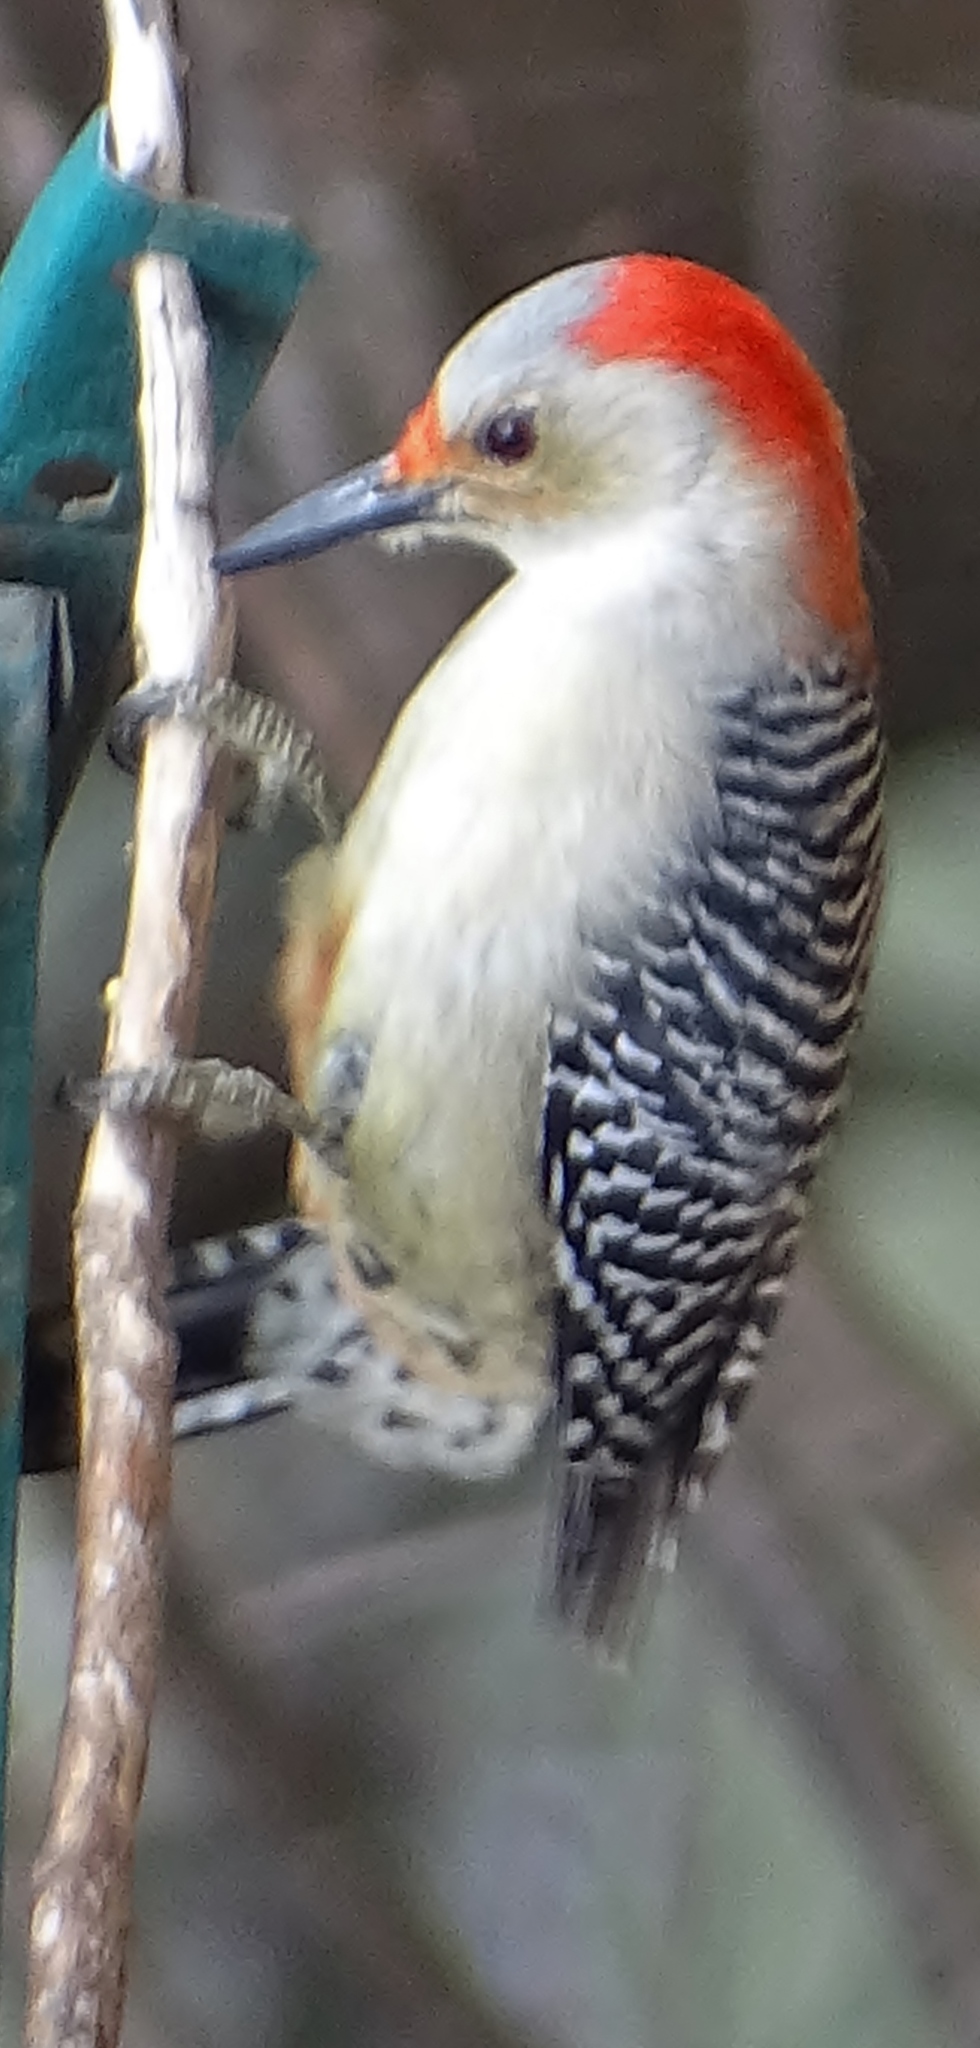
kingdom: Animalia
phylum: Chordata
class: Aves
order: Piciformes
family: Picidae
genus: Melanerpes
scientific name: Melanerpes carolinus
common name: Red-bellied woodpecker
